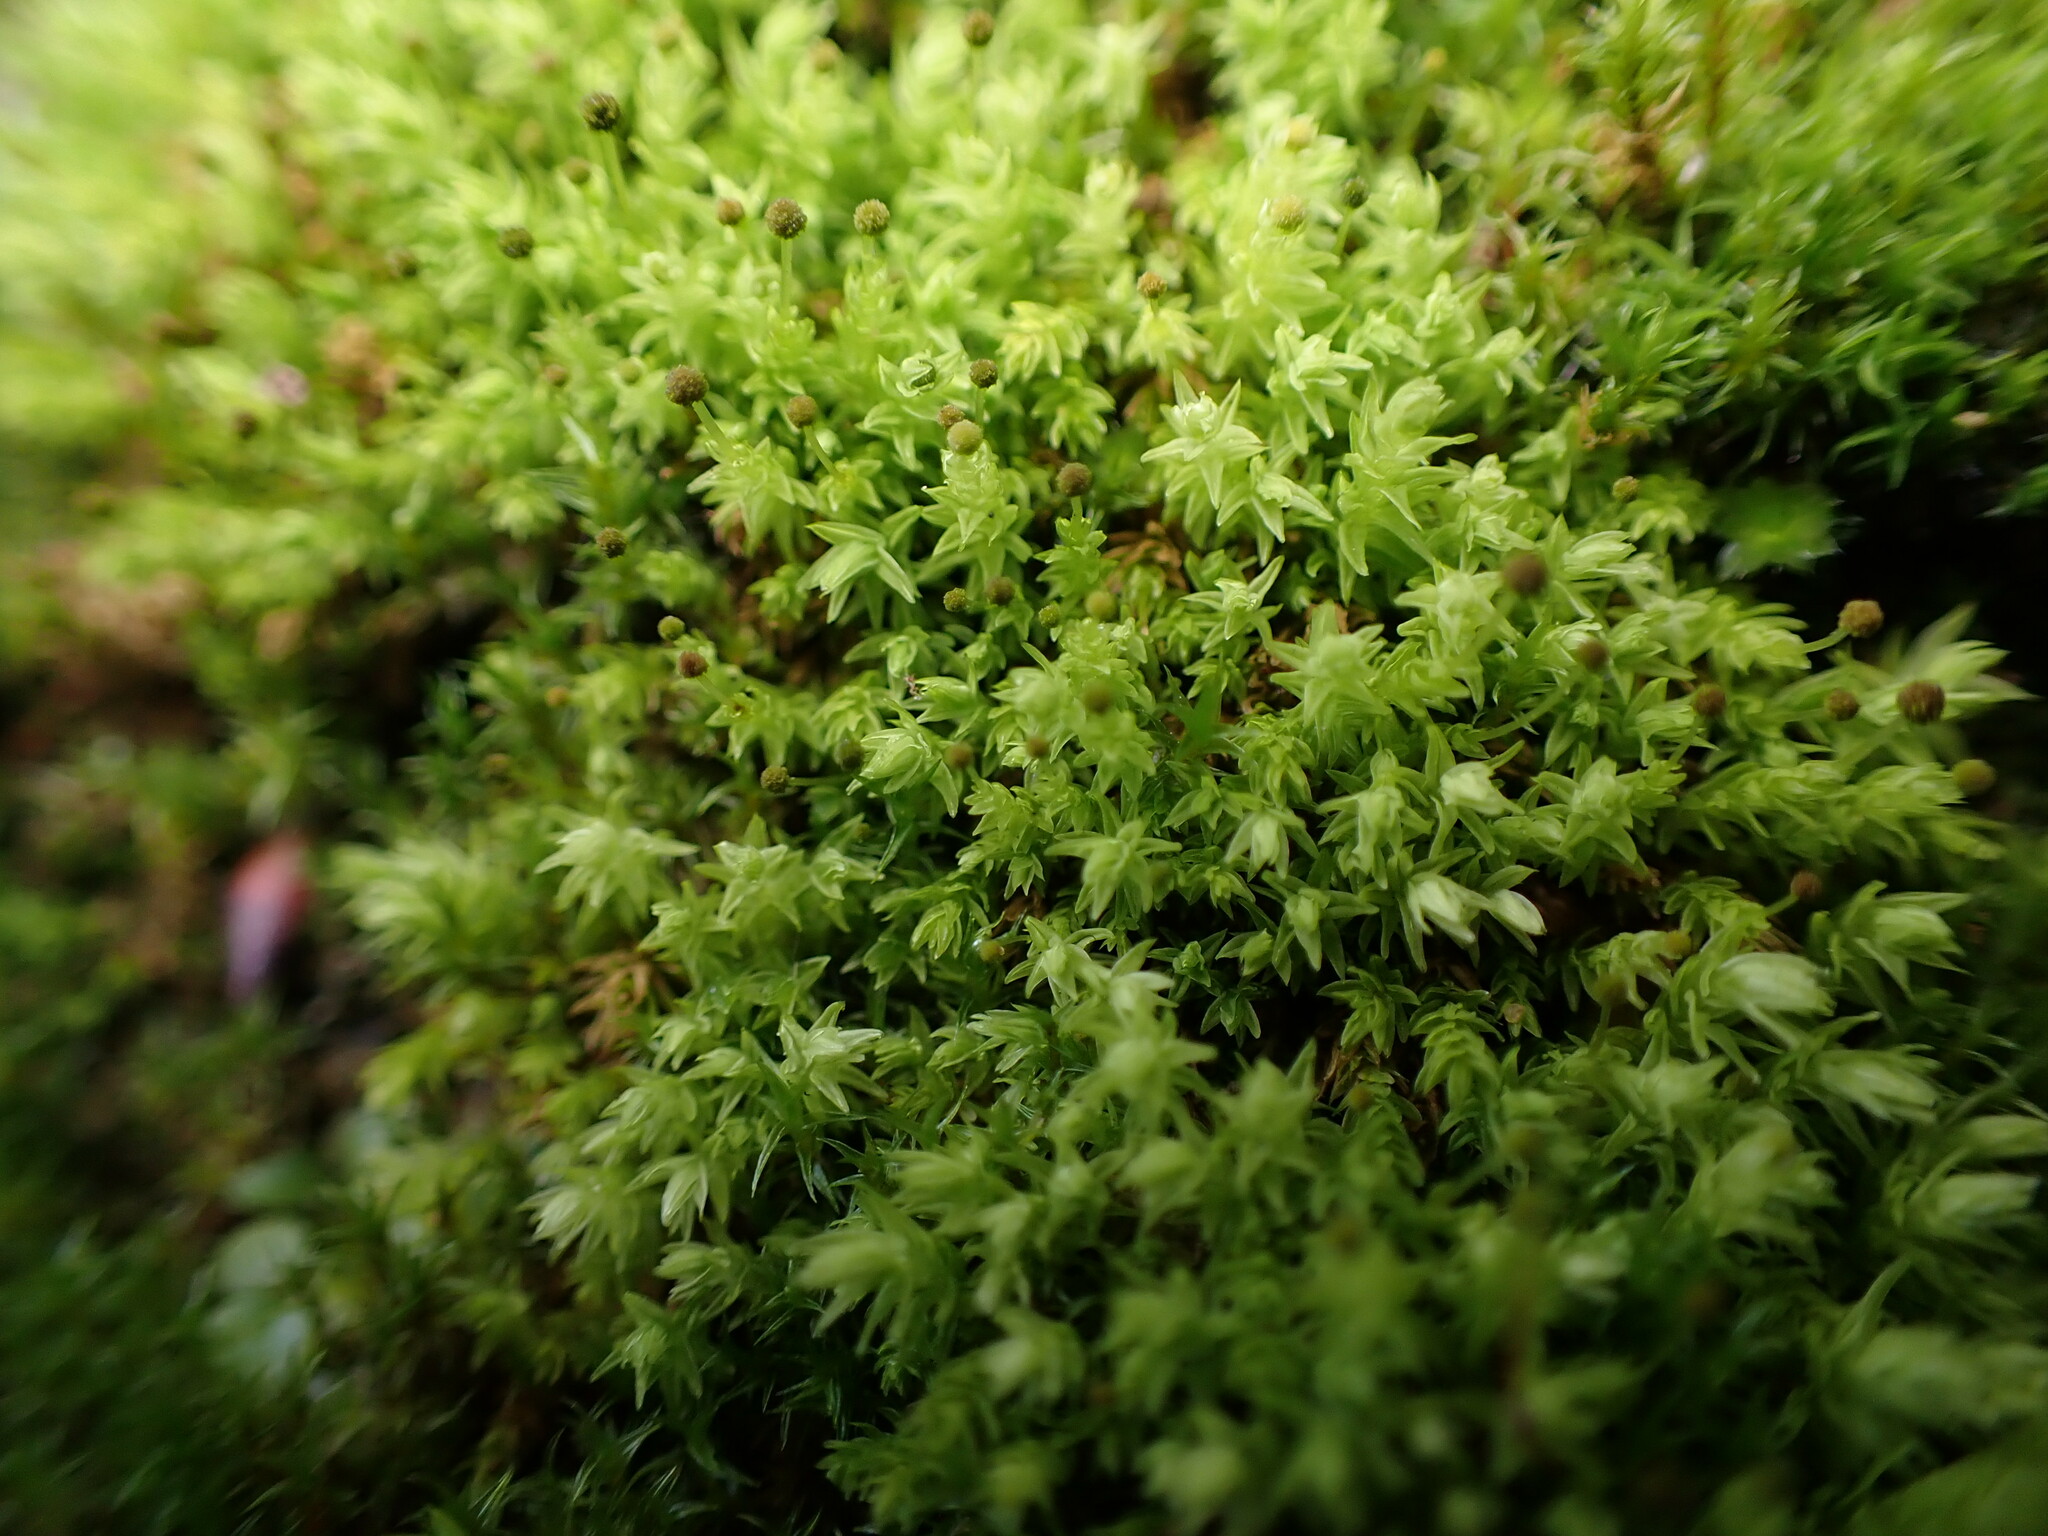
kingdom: Plantae
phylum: Bryophyta
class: Bryopsida
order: Aulacomniales
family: Aulacomniaceae
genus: Aulacomnium
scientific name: Aulacomnium androgynum
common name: Little groove moss
